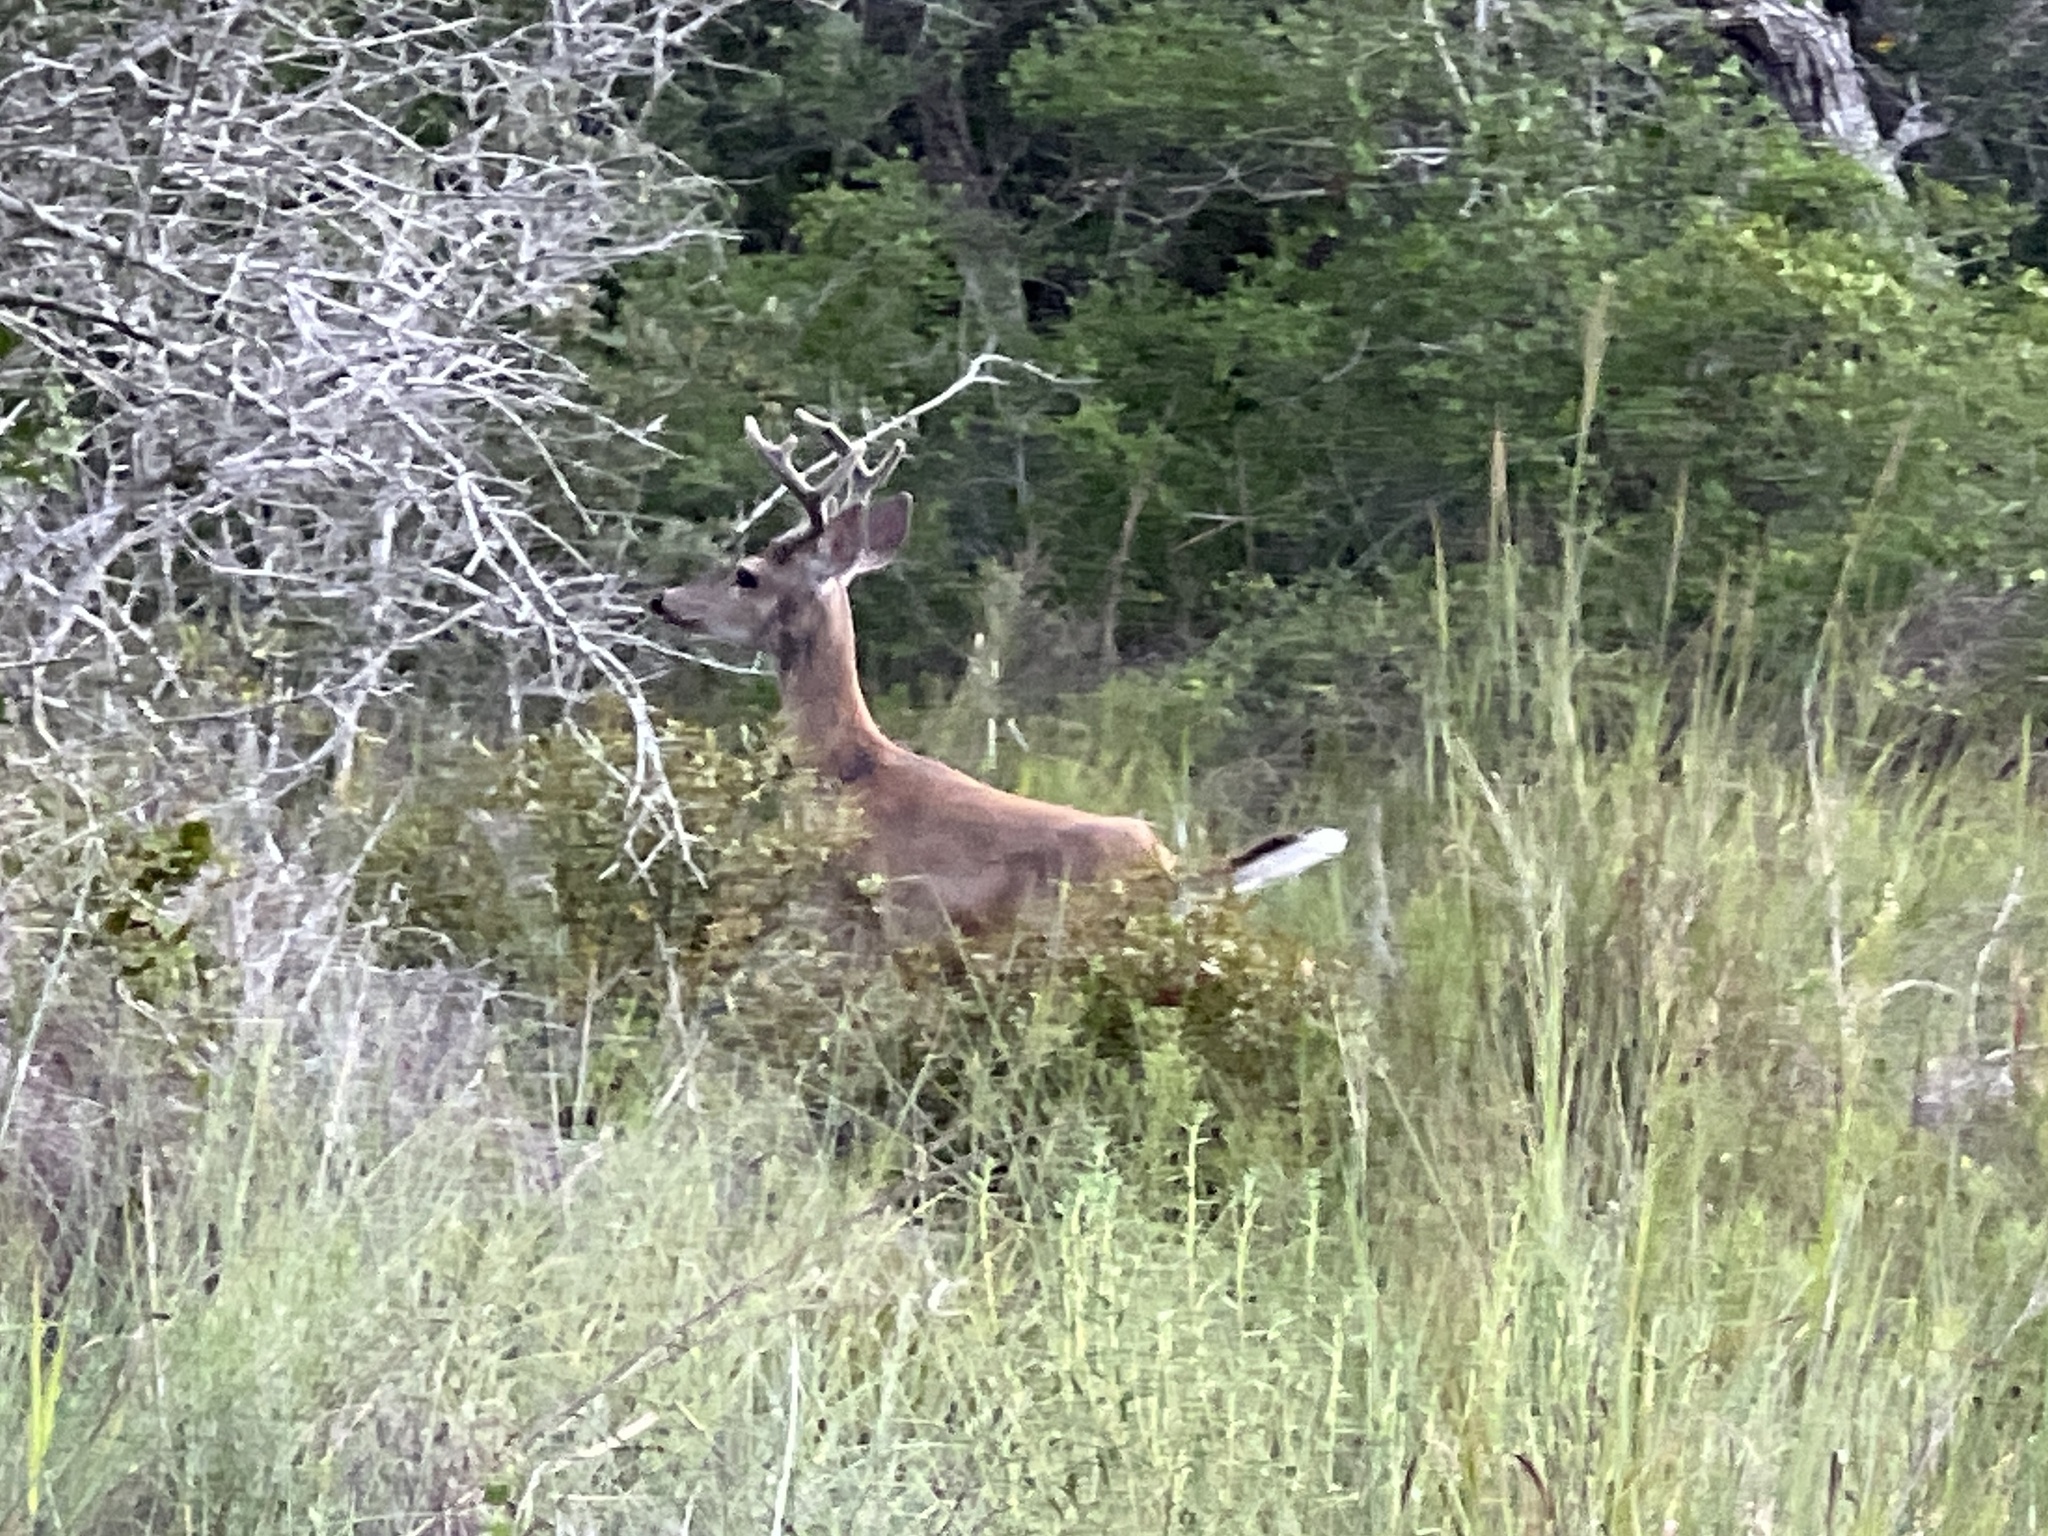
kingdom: Animalia
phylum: Chordata
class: Mammalia
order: Artiodactyla
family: Cervidae
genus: Odocoileus
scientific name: Odocoileus virginianus
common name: White-tailed deer
